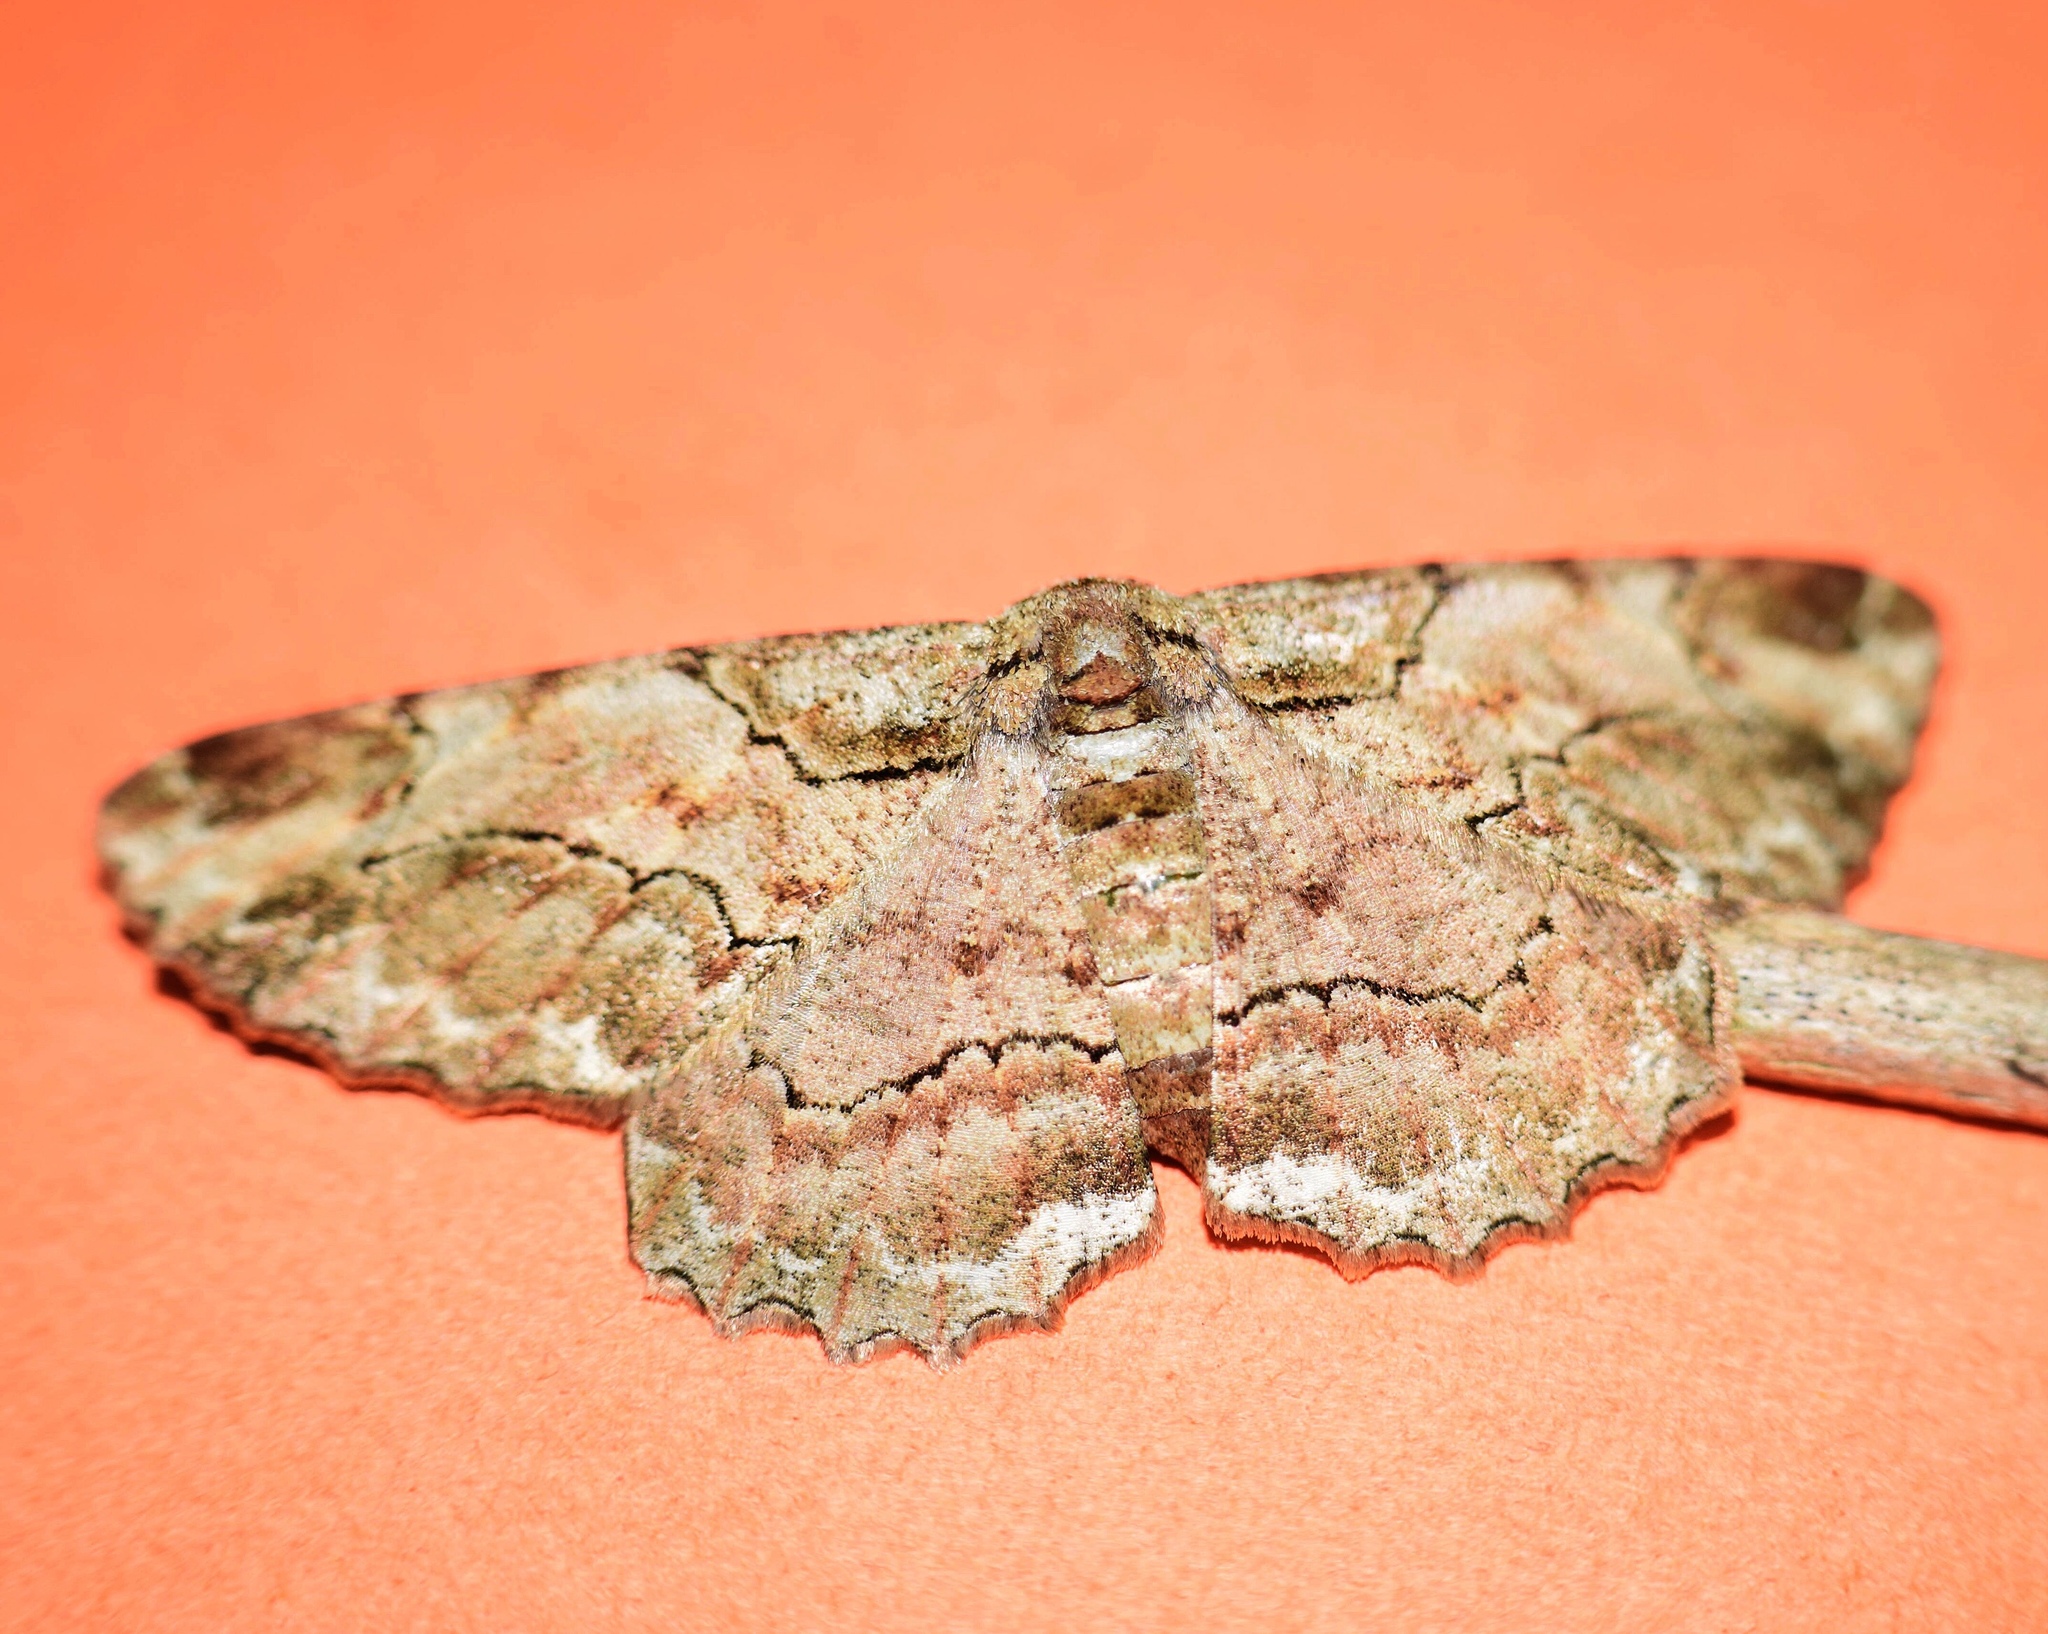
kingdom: Animalia
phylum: Arthropoda
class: Insecta
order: Lepidoptera
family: Geometridae
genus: Colocleora
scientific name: Colocleora divisaria
